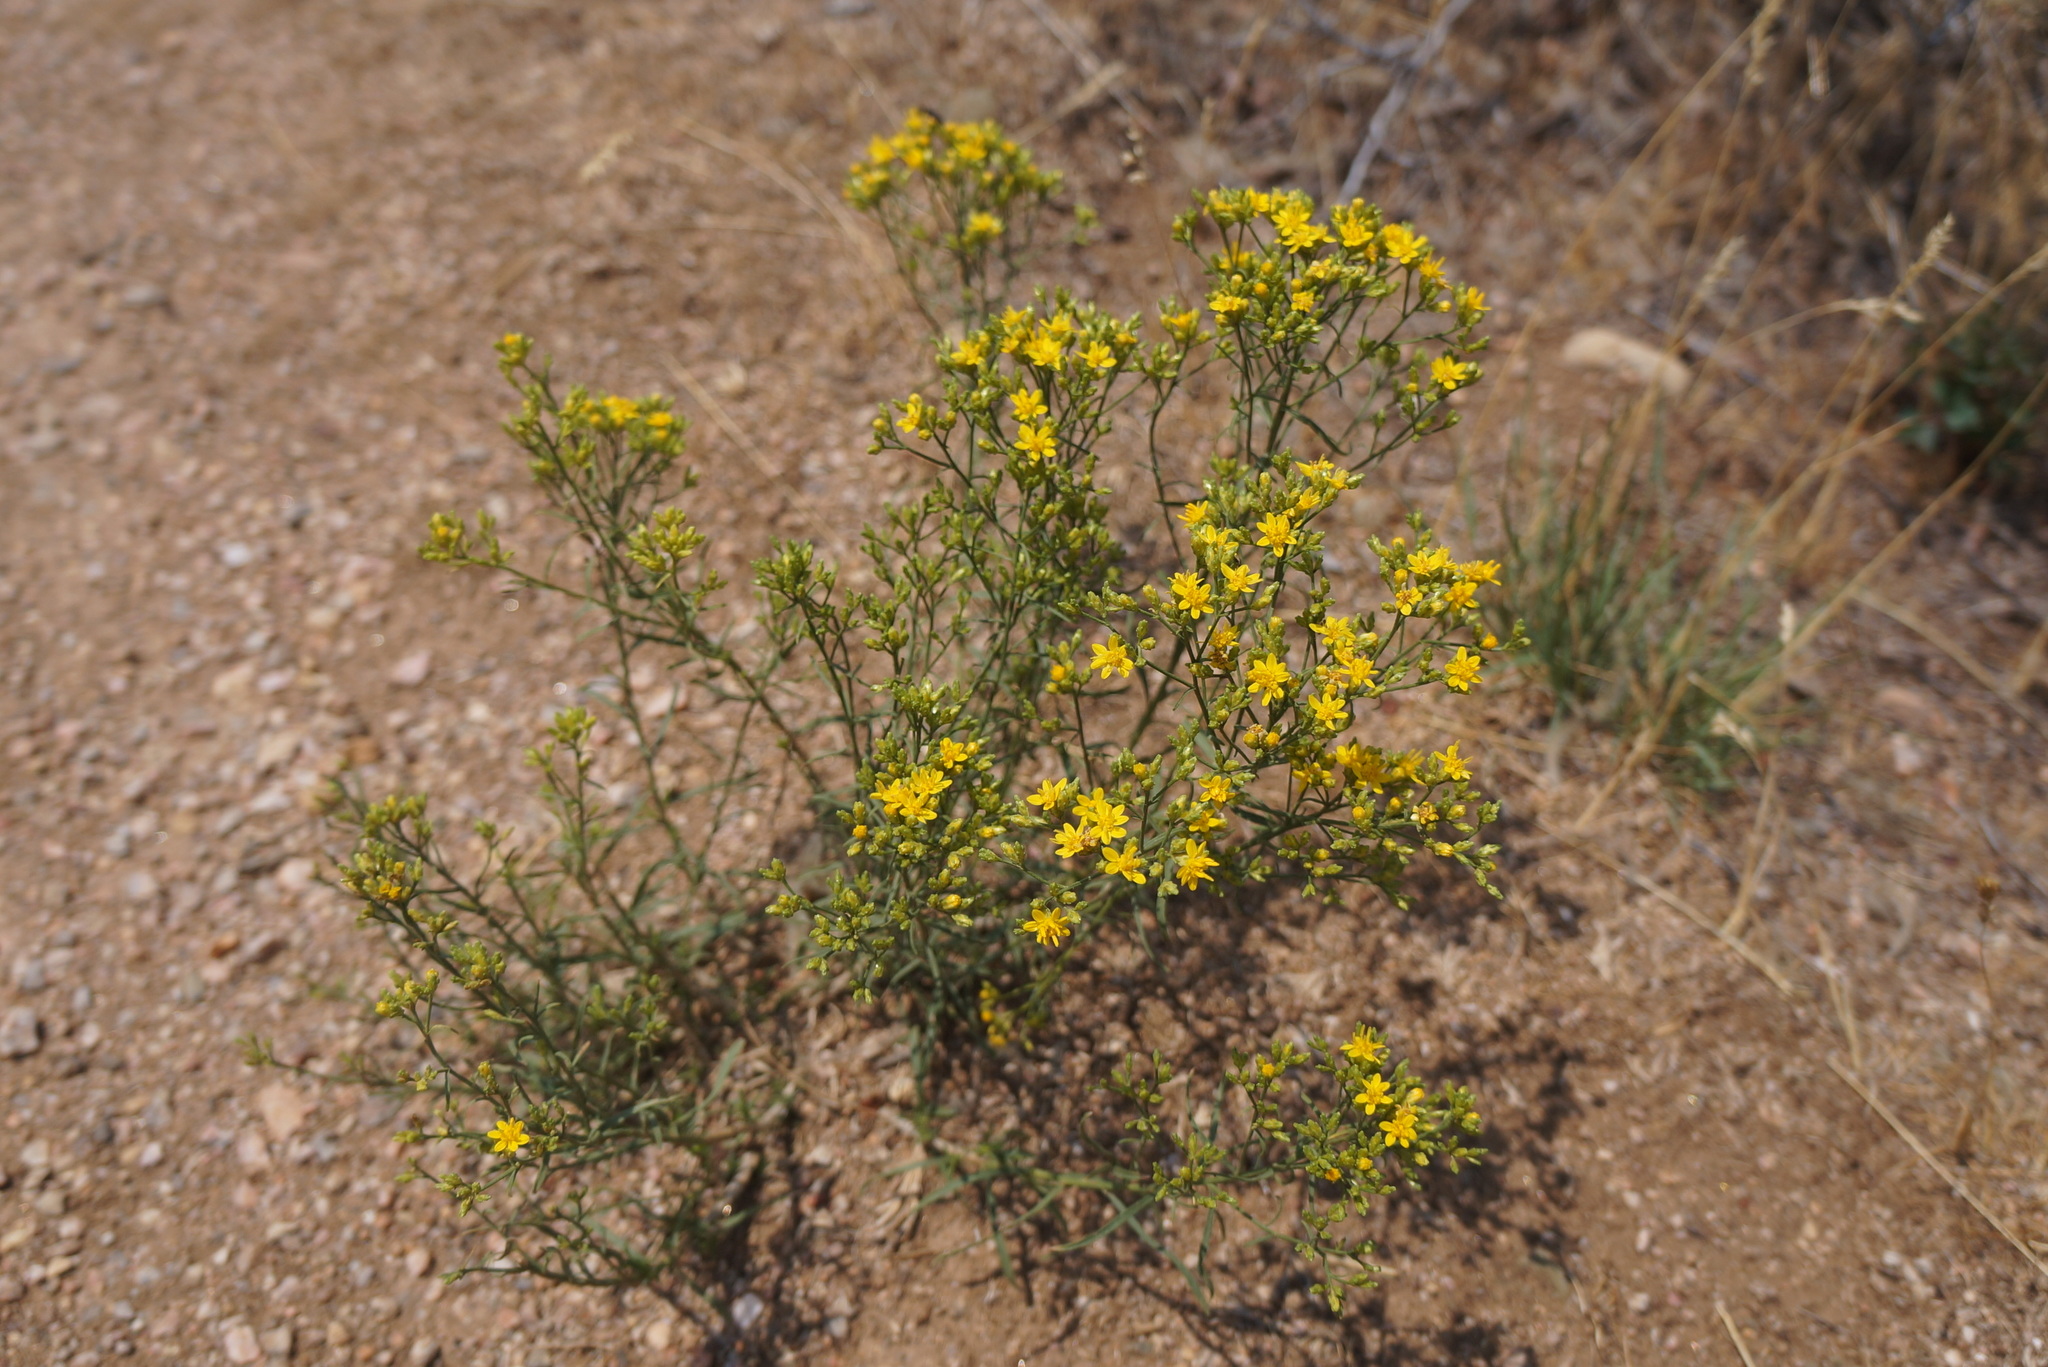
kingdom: Plantae
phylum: Tracheophyta
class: Magnoliopsida
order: Asterales
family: Asteraceae
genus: Gutierrezia
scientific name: Gutierrezia sarothrae
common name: Broom snakeweed
